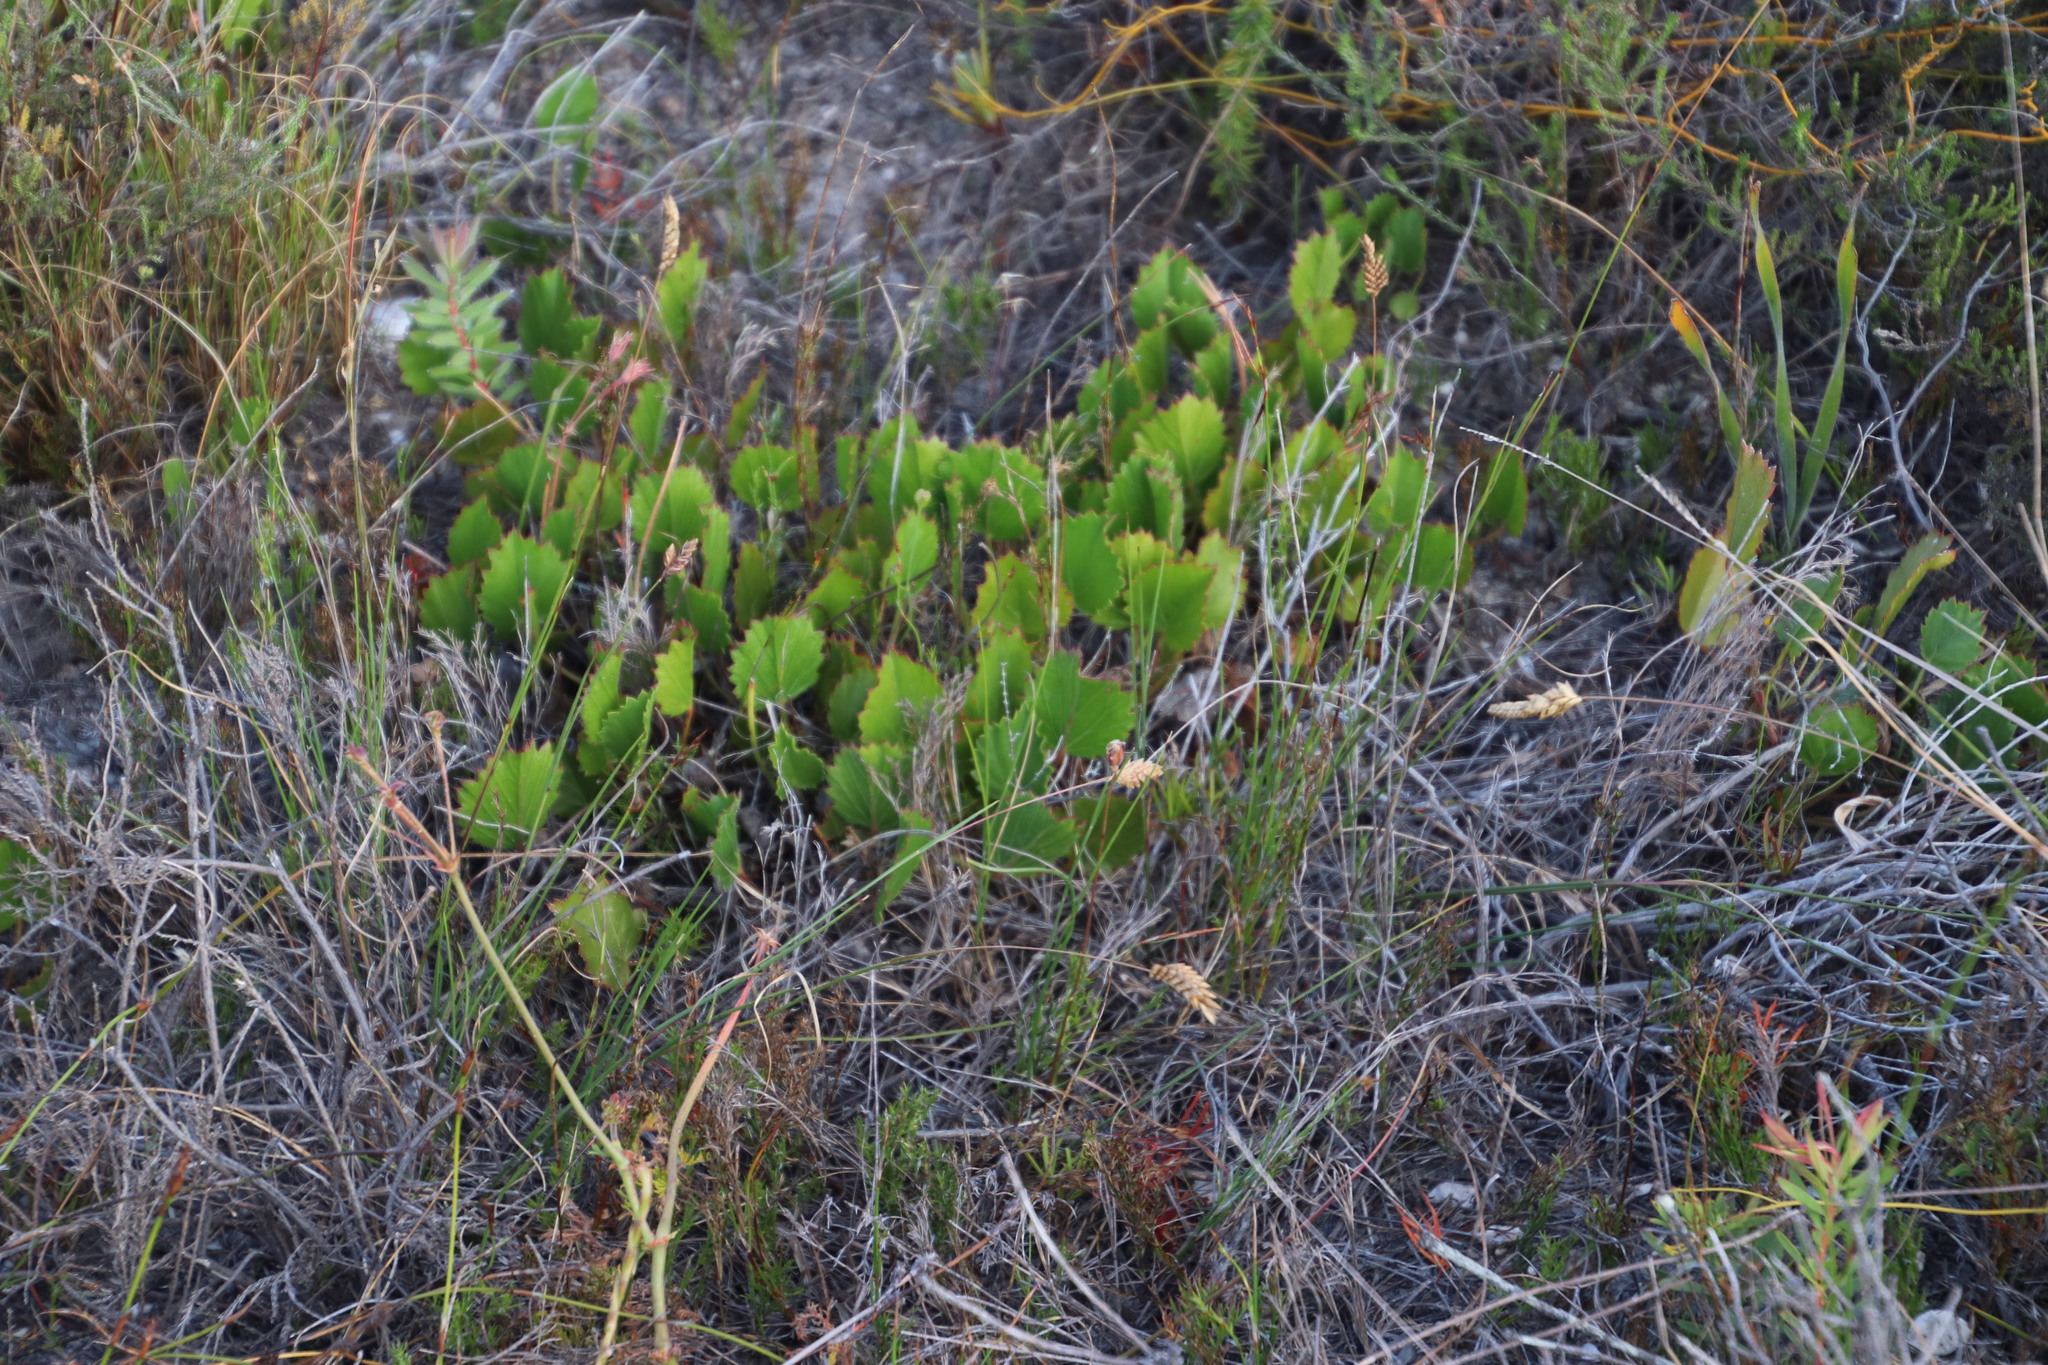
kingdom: Plantae
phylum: Tracheophyta
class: Magnoliopsida
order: Geraniales
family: Geraniaceae
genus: Pelargonium
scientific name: Pelargonium elegans
